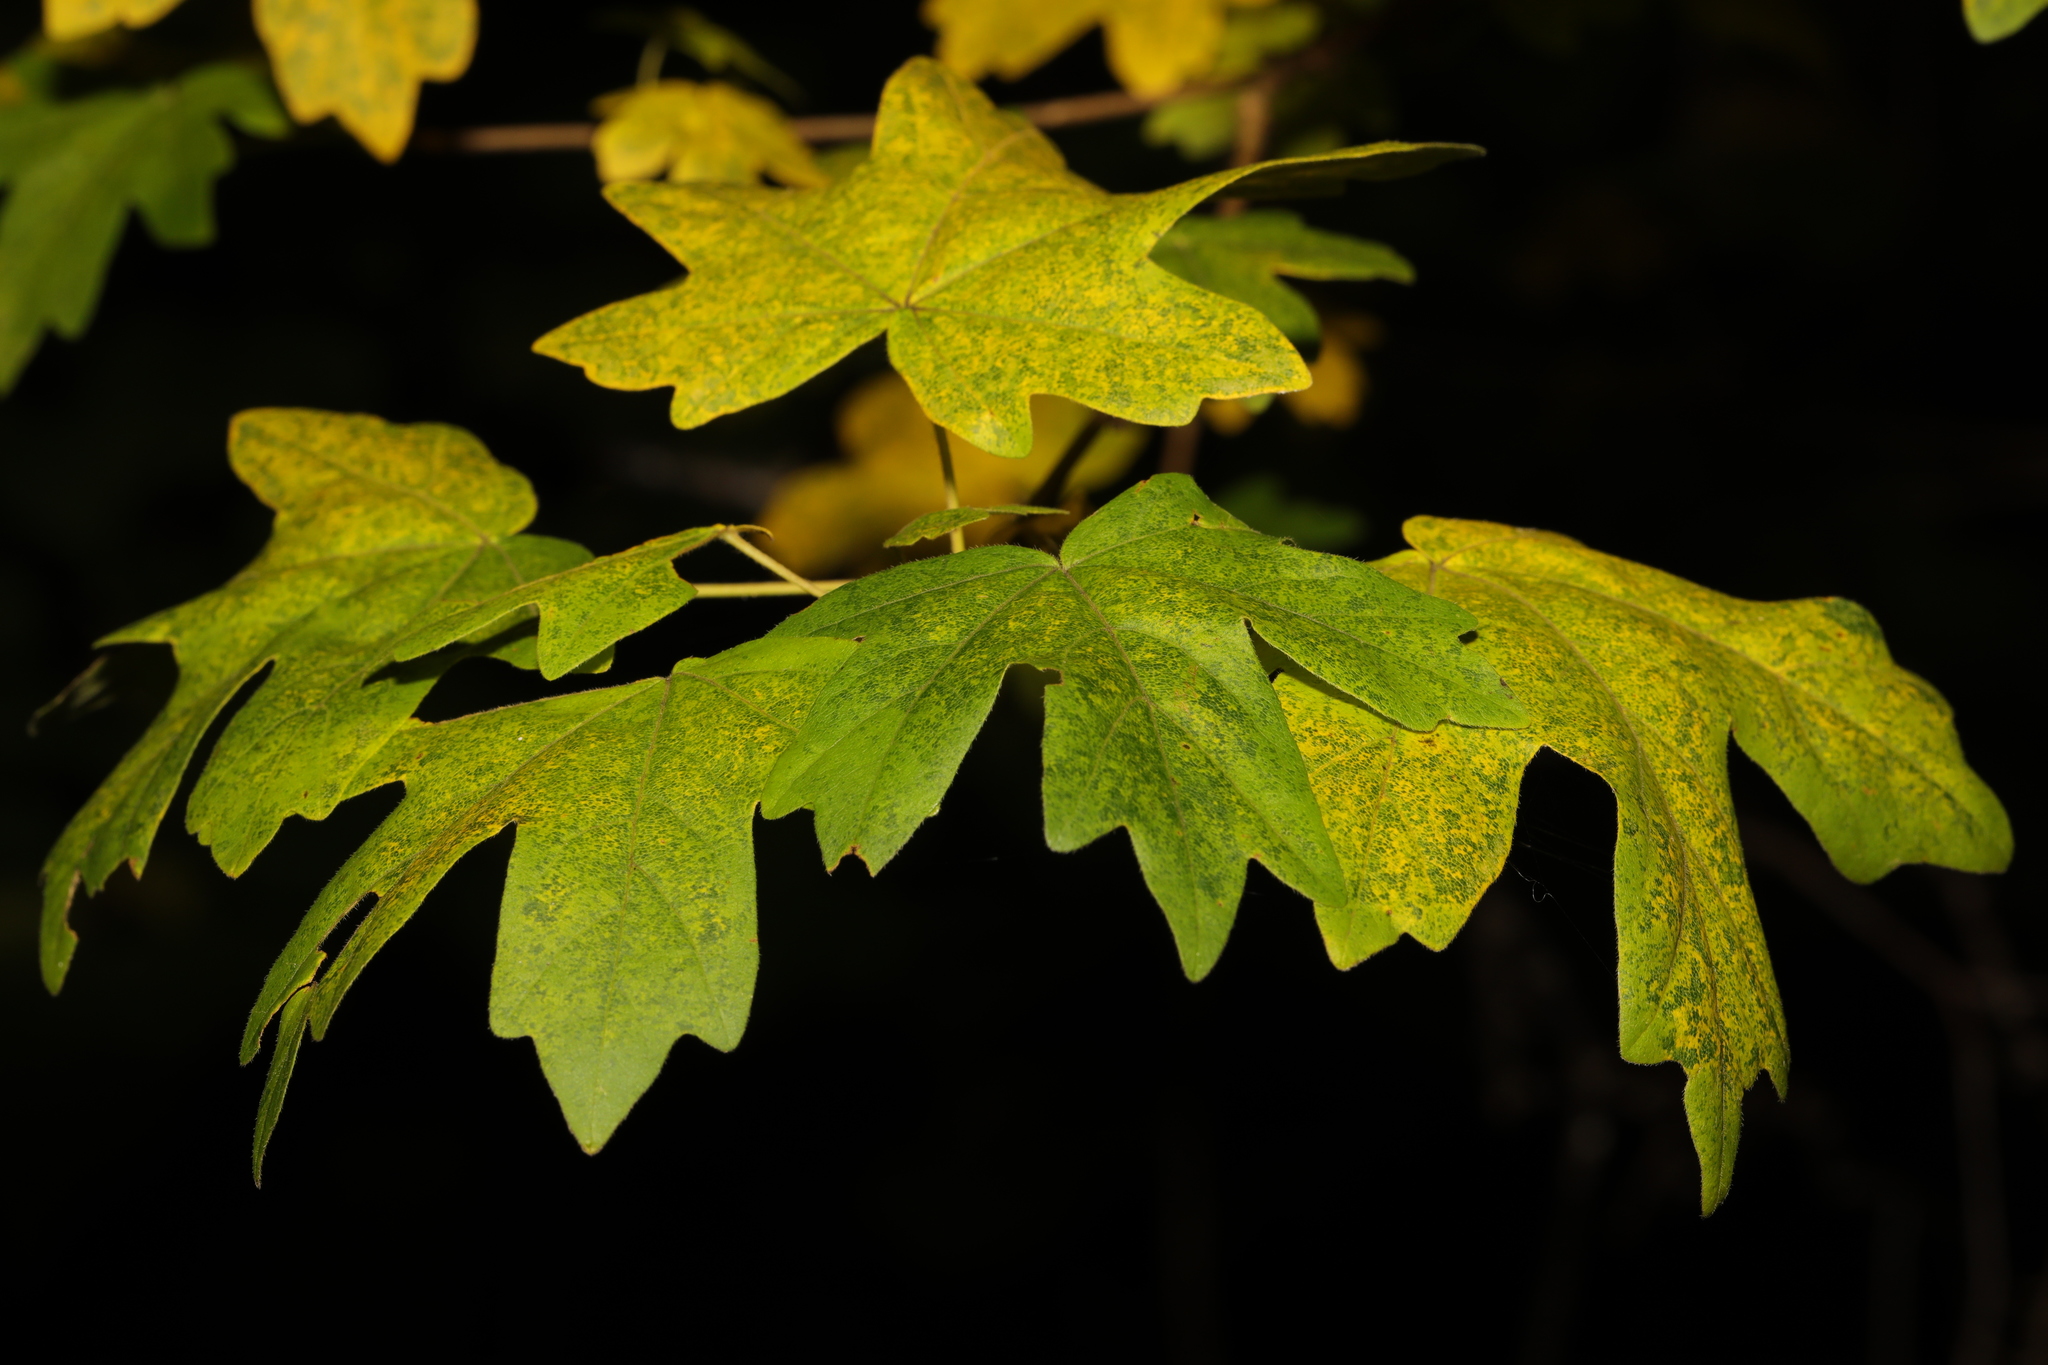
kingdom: Plantae
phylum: Tracheophyta
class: Magnoliopsida
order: Sapindales
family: Sapindaceae
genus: Acer
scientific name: Acer campestre
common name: Field maple
